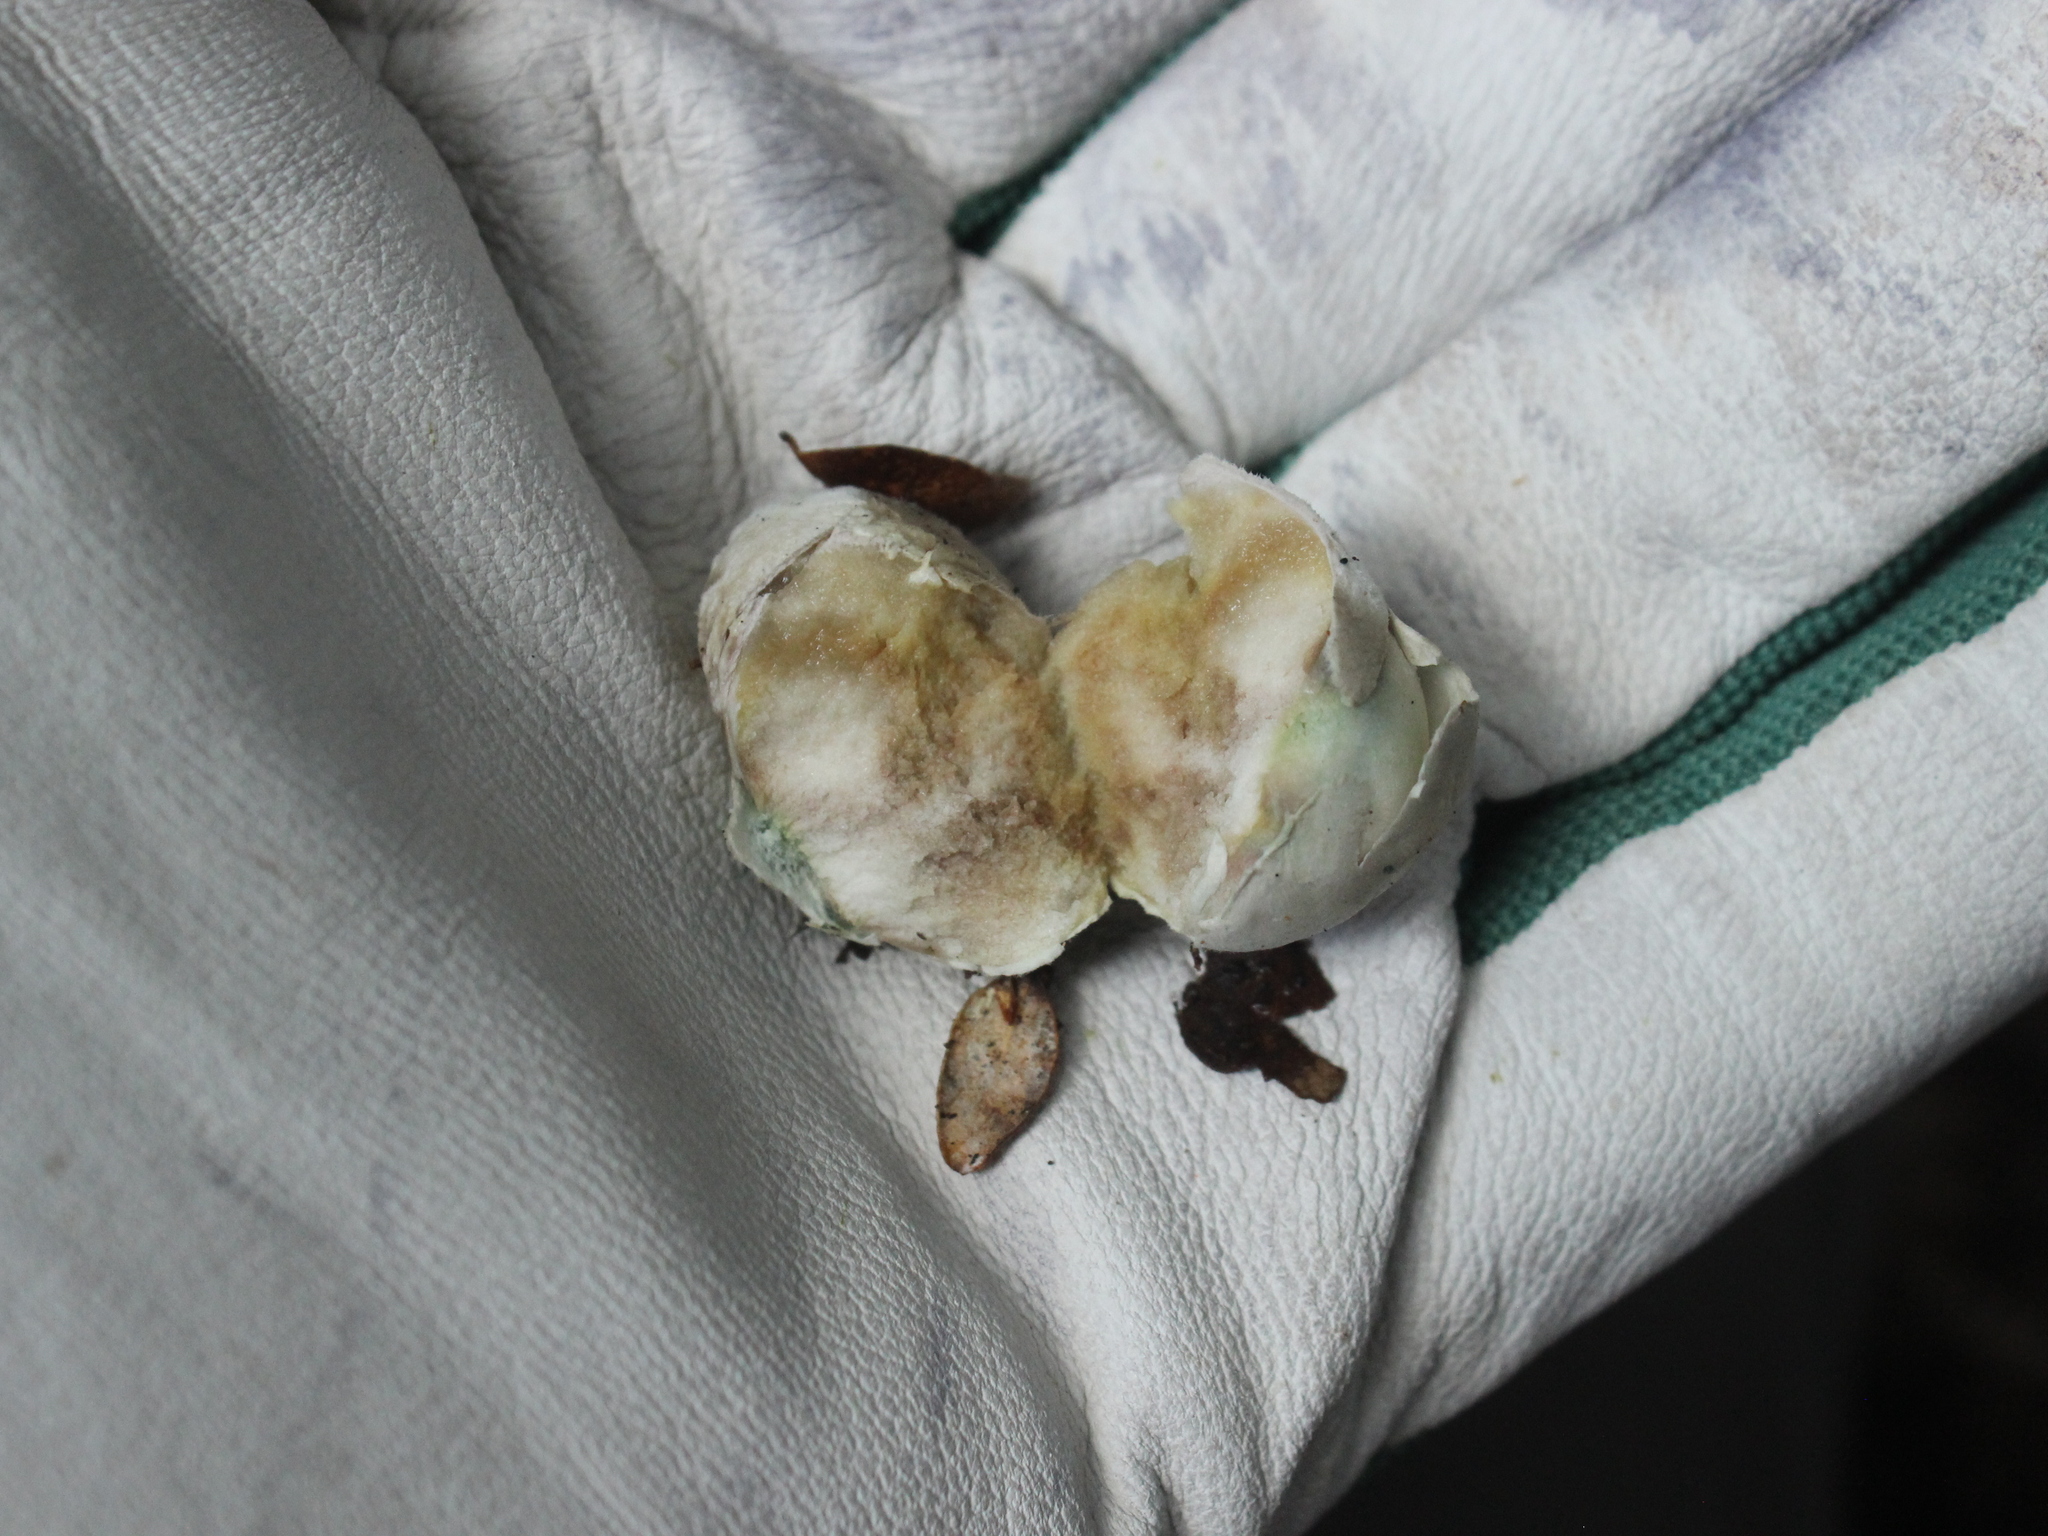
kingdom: Fungi
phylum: Basidiomycota
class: Agaricomycetes
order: Boletales
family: Boletaceae
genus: Leccinum
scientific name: Leccinum pachyderme
